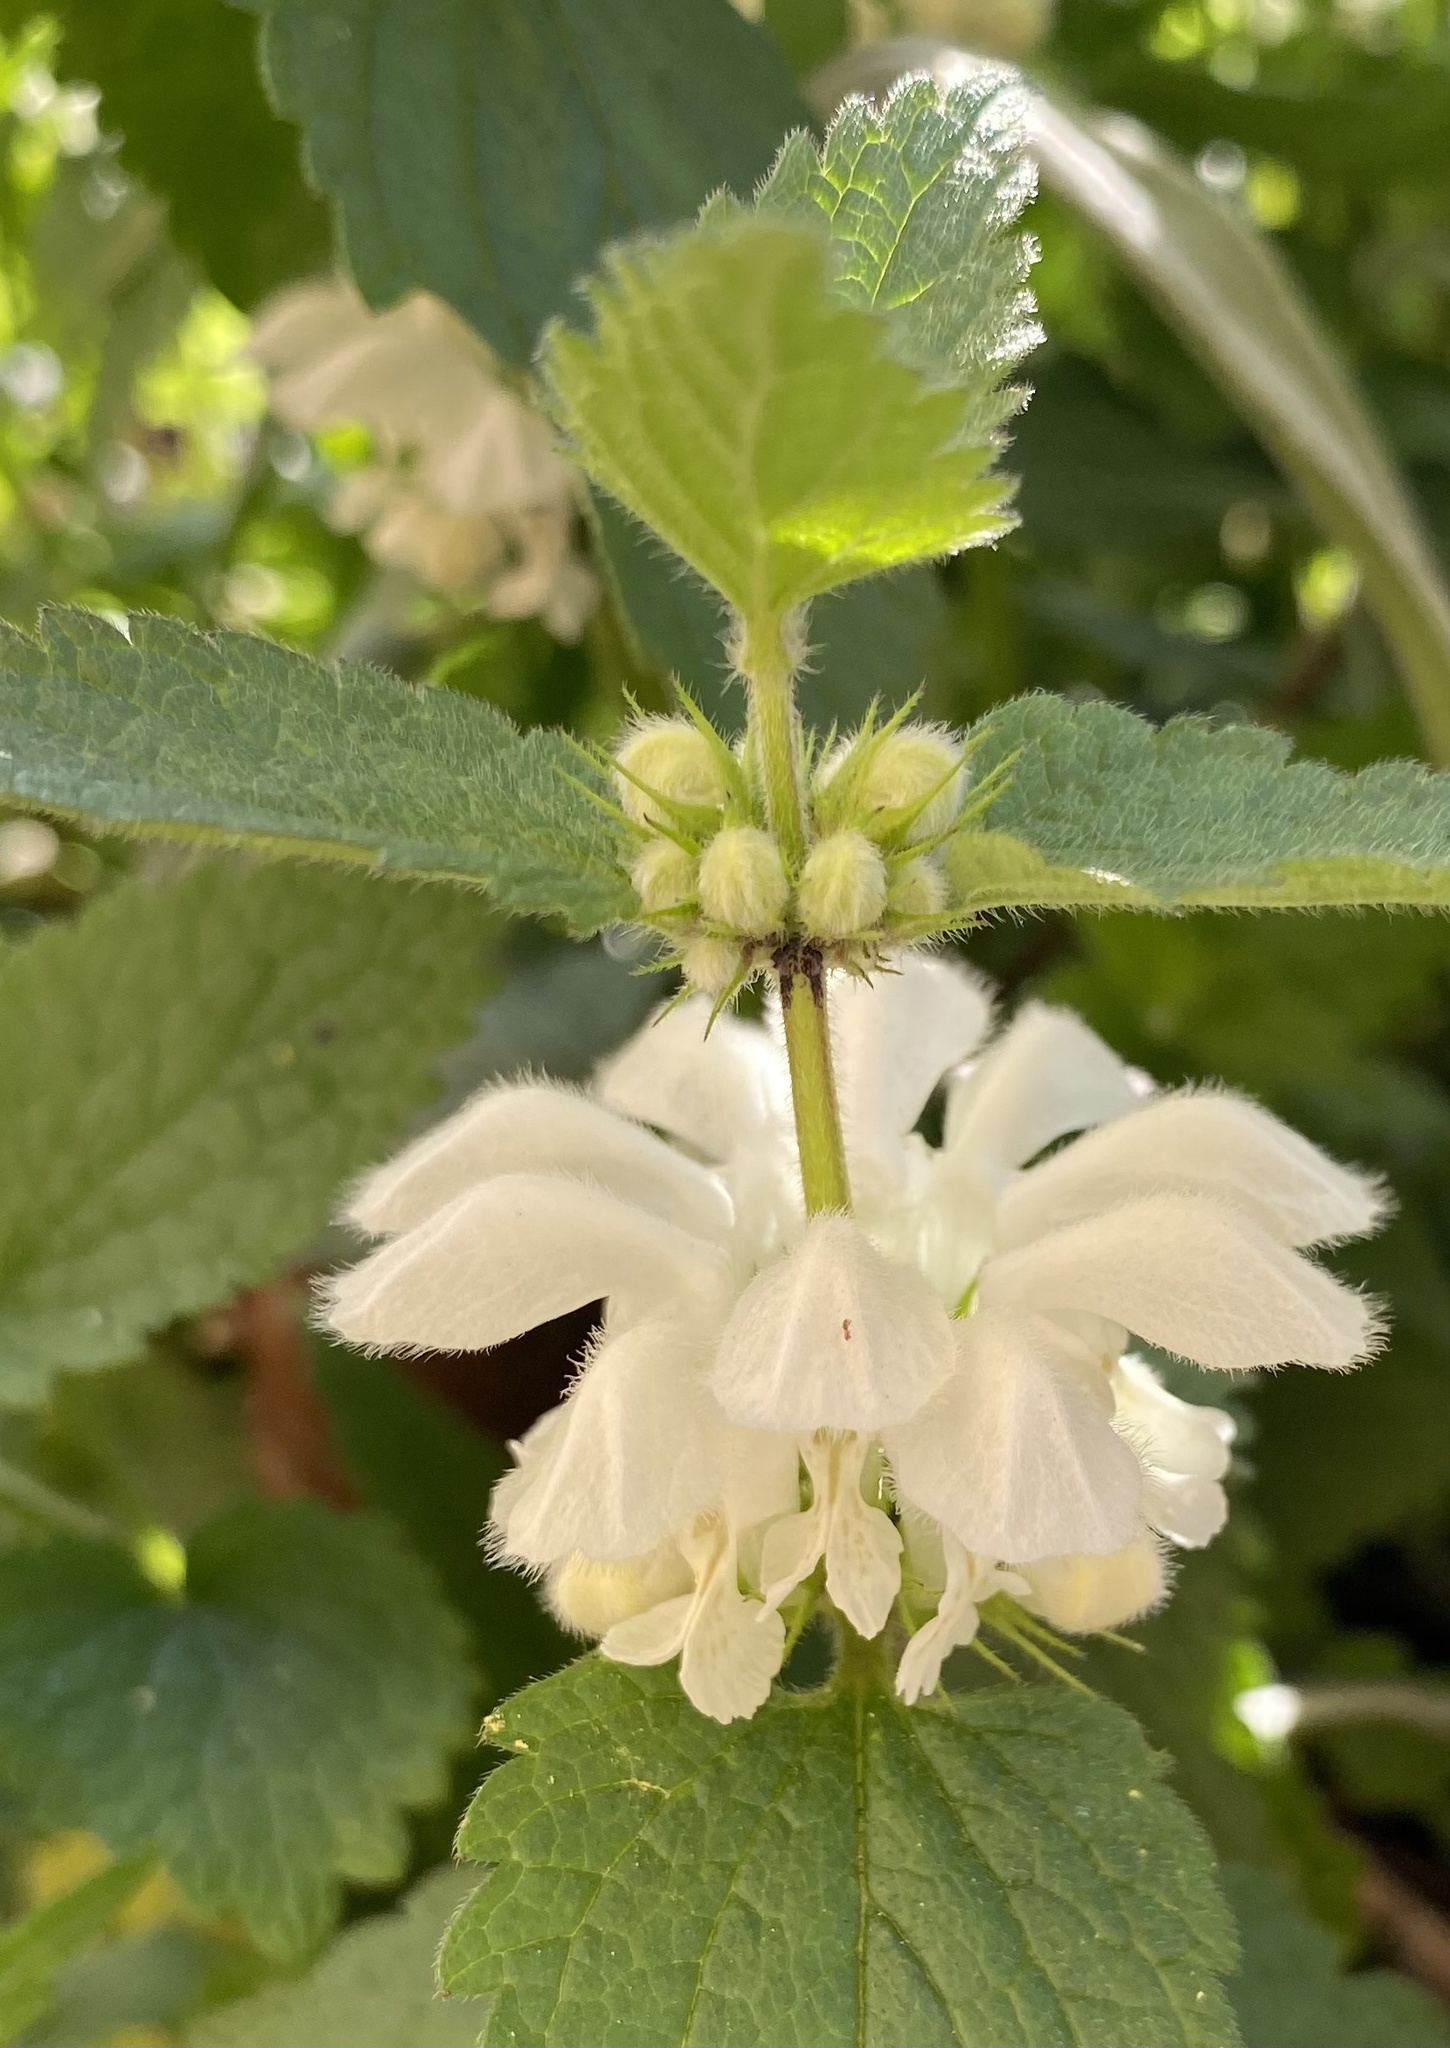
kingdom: Plantae
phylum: Tracheophyta
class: Magnoliopsida
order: Lamiales
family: Lamiaceae
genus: Lamium
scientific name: Lamium album
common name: White dead-nettle
